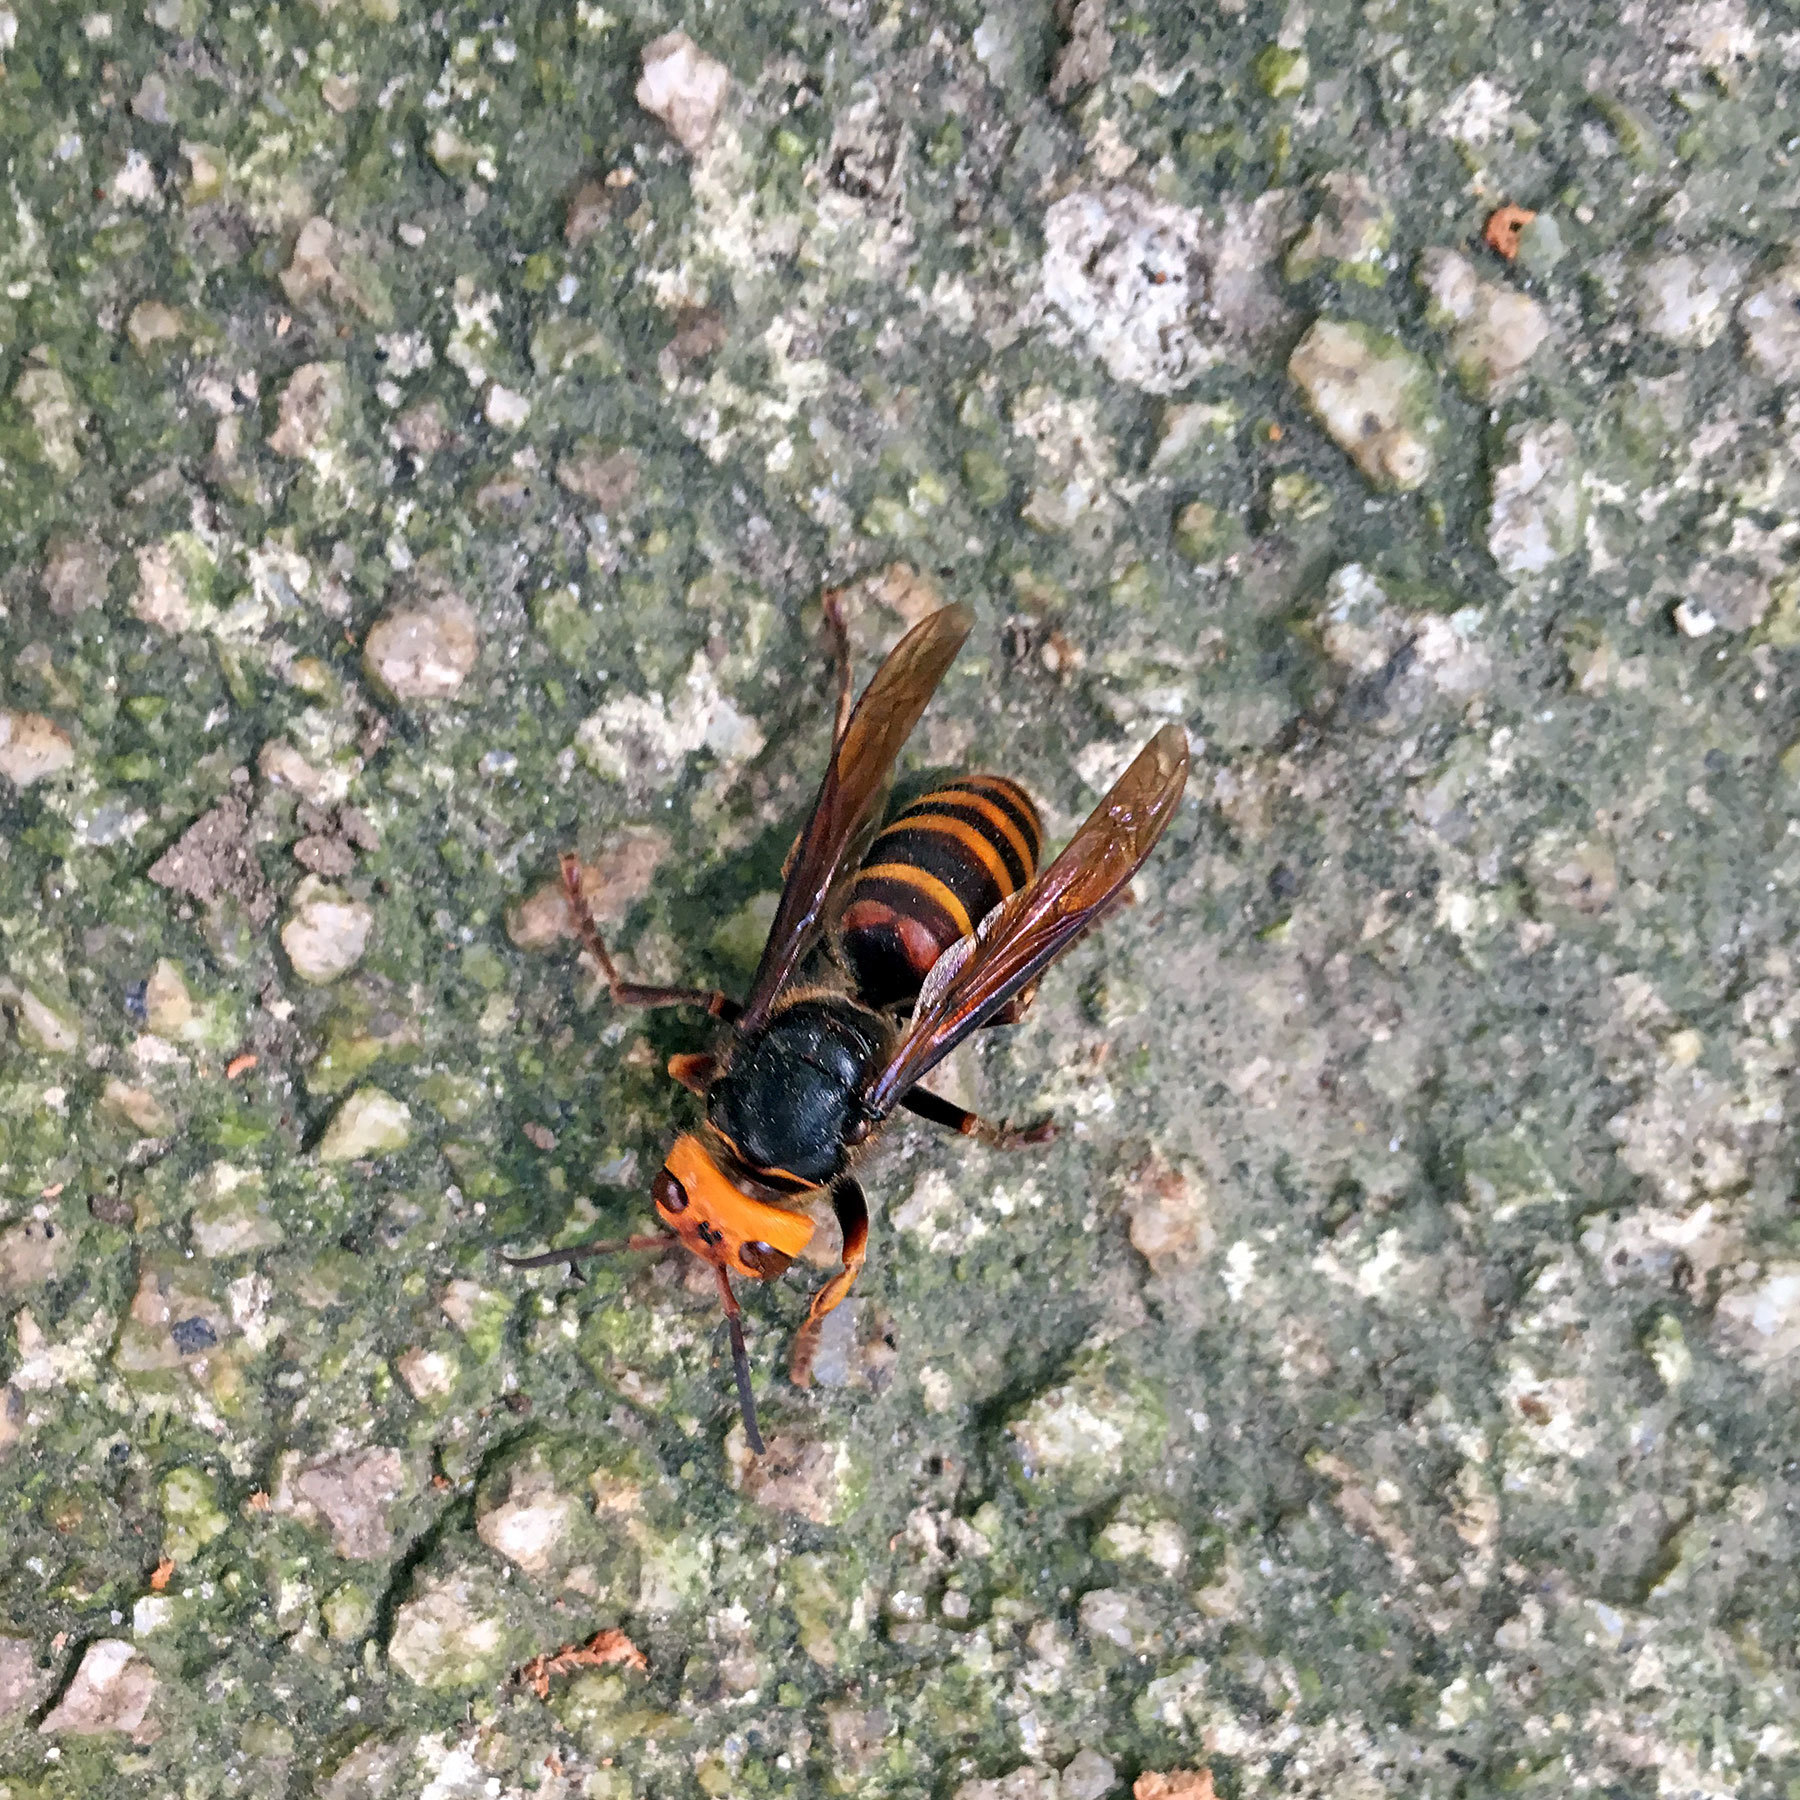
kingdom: Animalia
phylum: Arthropoda
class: Insecta
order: Hymenoptera
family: Vespidae
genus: Vespa
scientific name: Vespa analis
